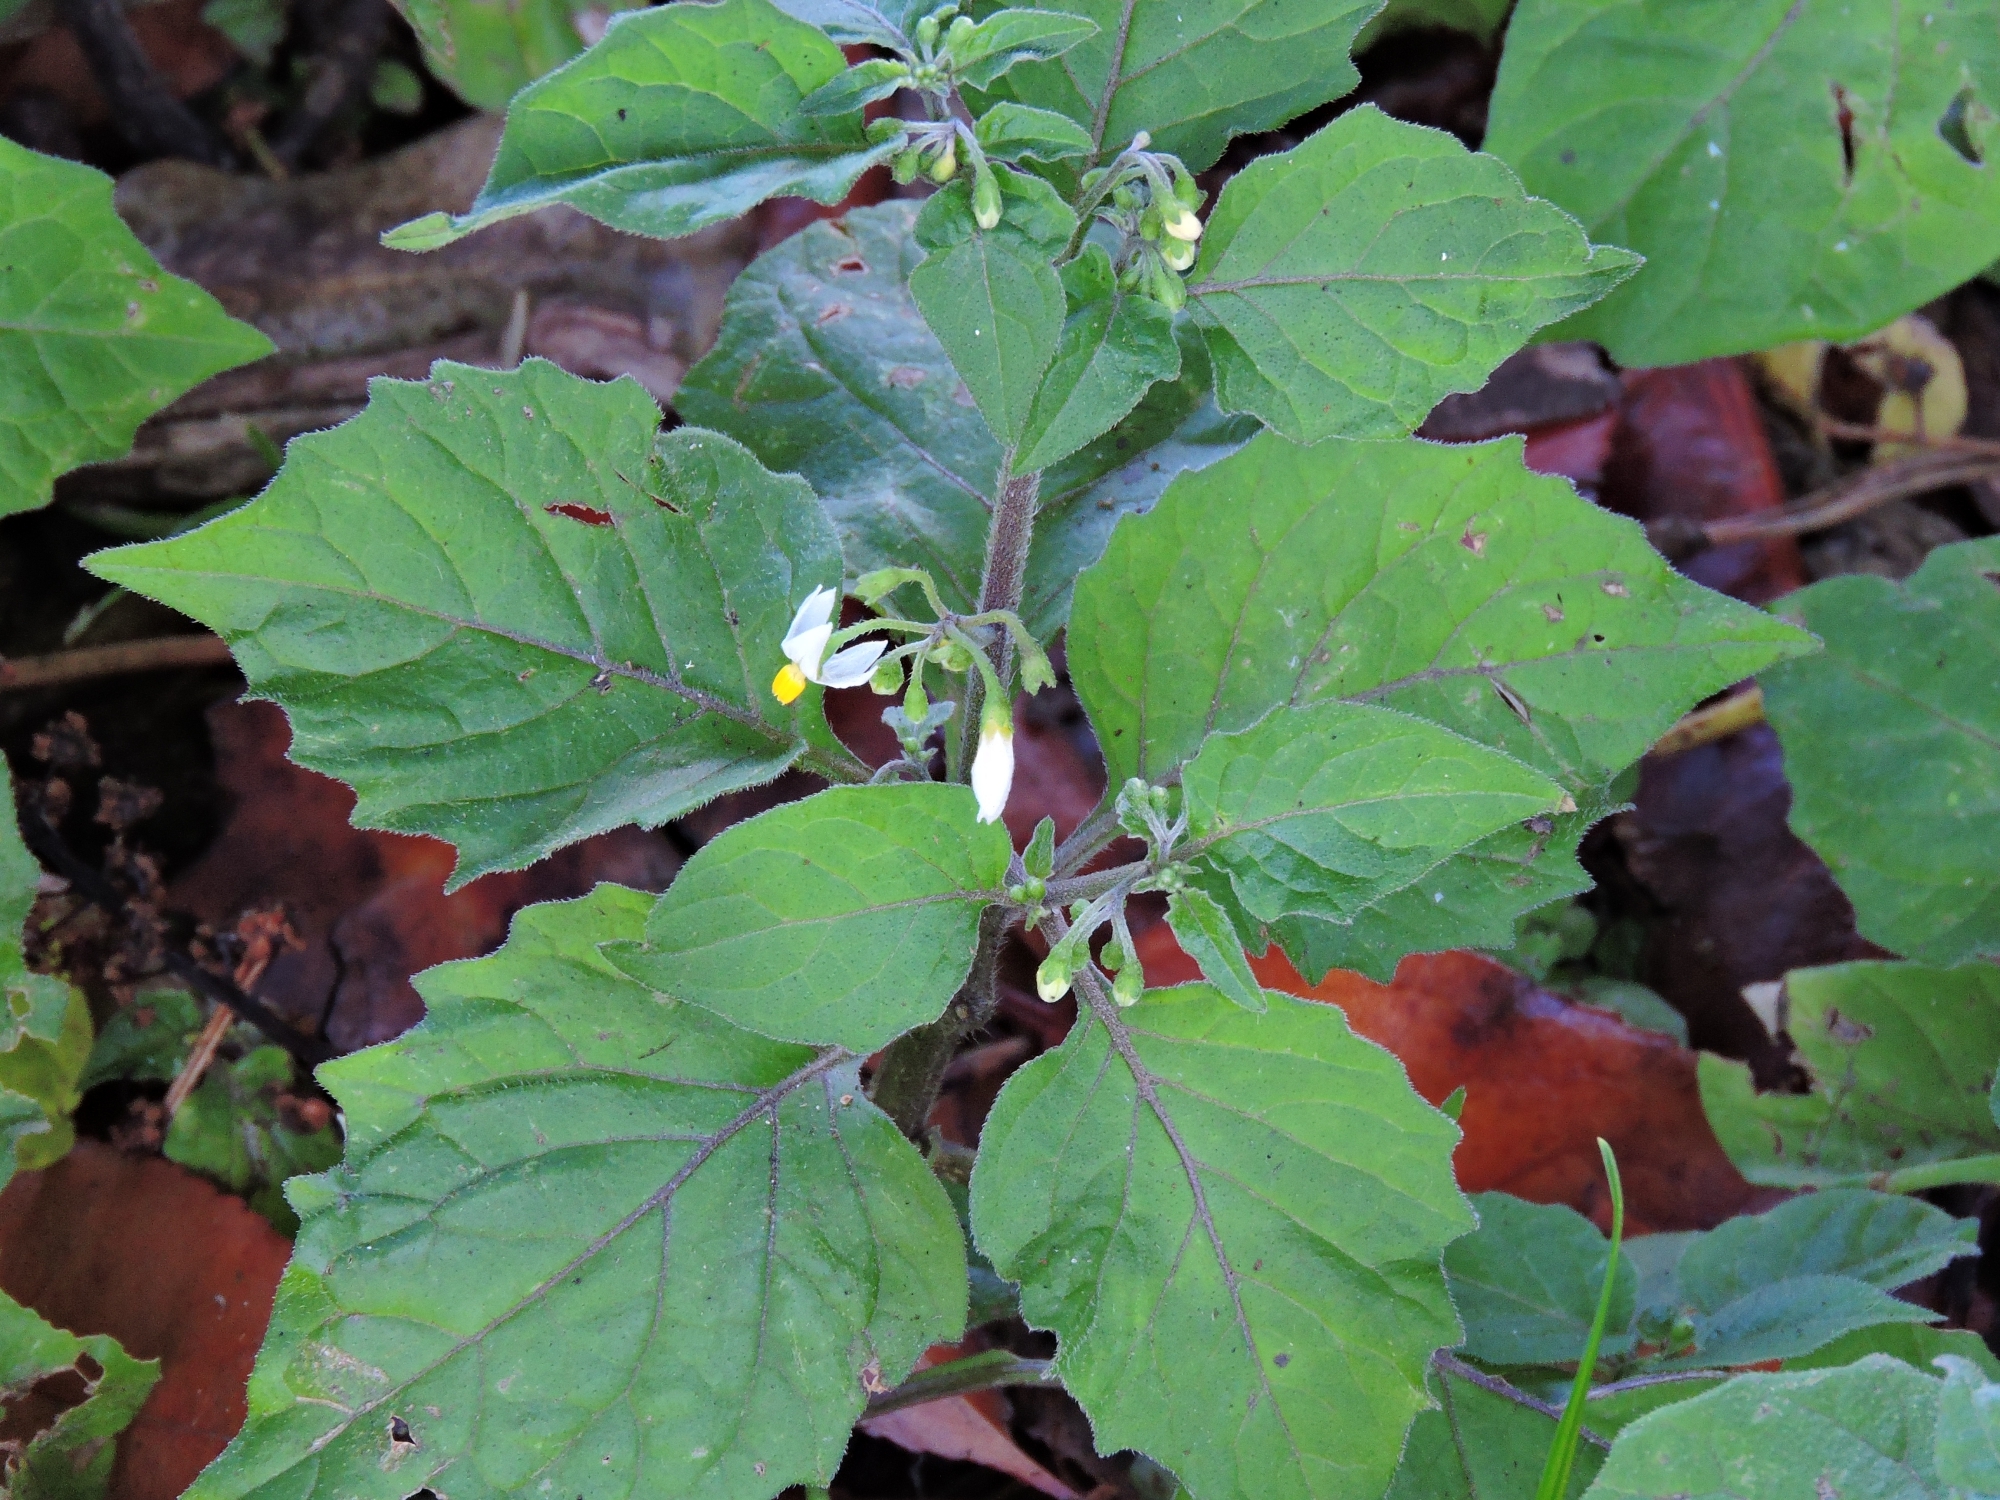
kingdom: Plantae
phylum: Tracheophyta
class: Magnoliopsida
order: Solanales
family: Solanaceae
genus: Solanum
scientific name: Solanum nigrum
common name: Black nightshade
